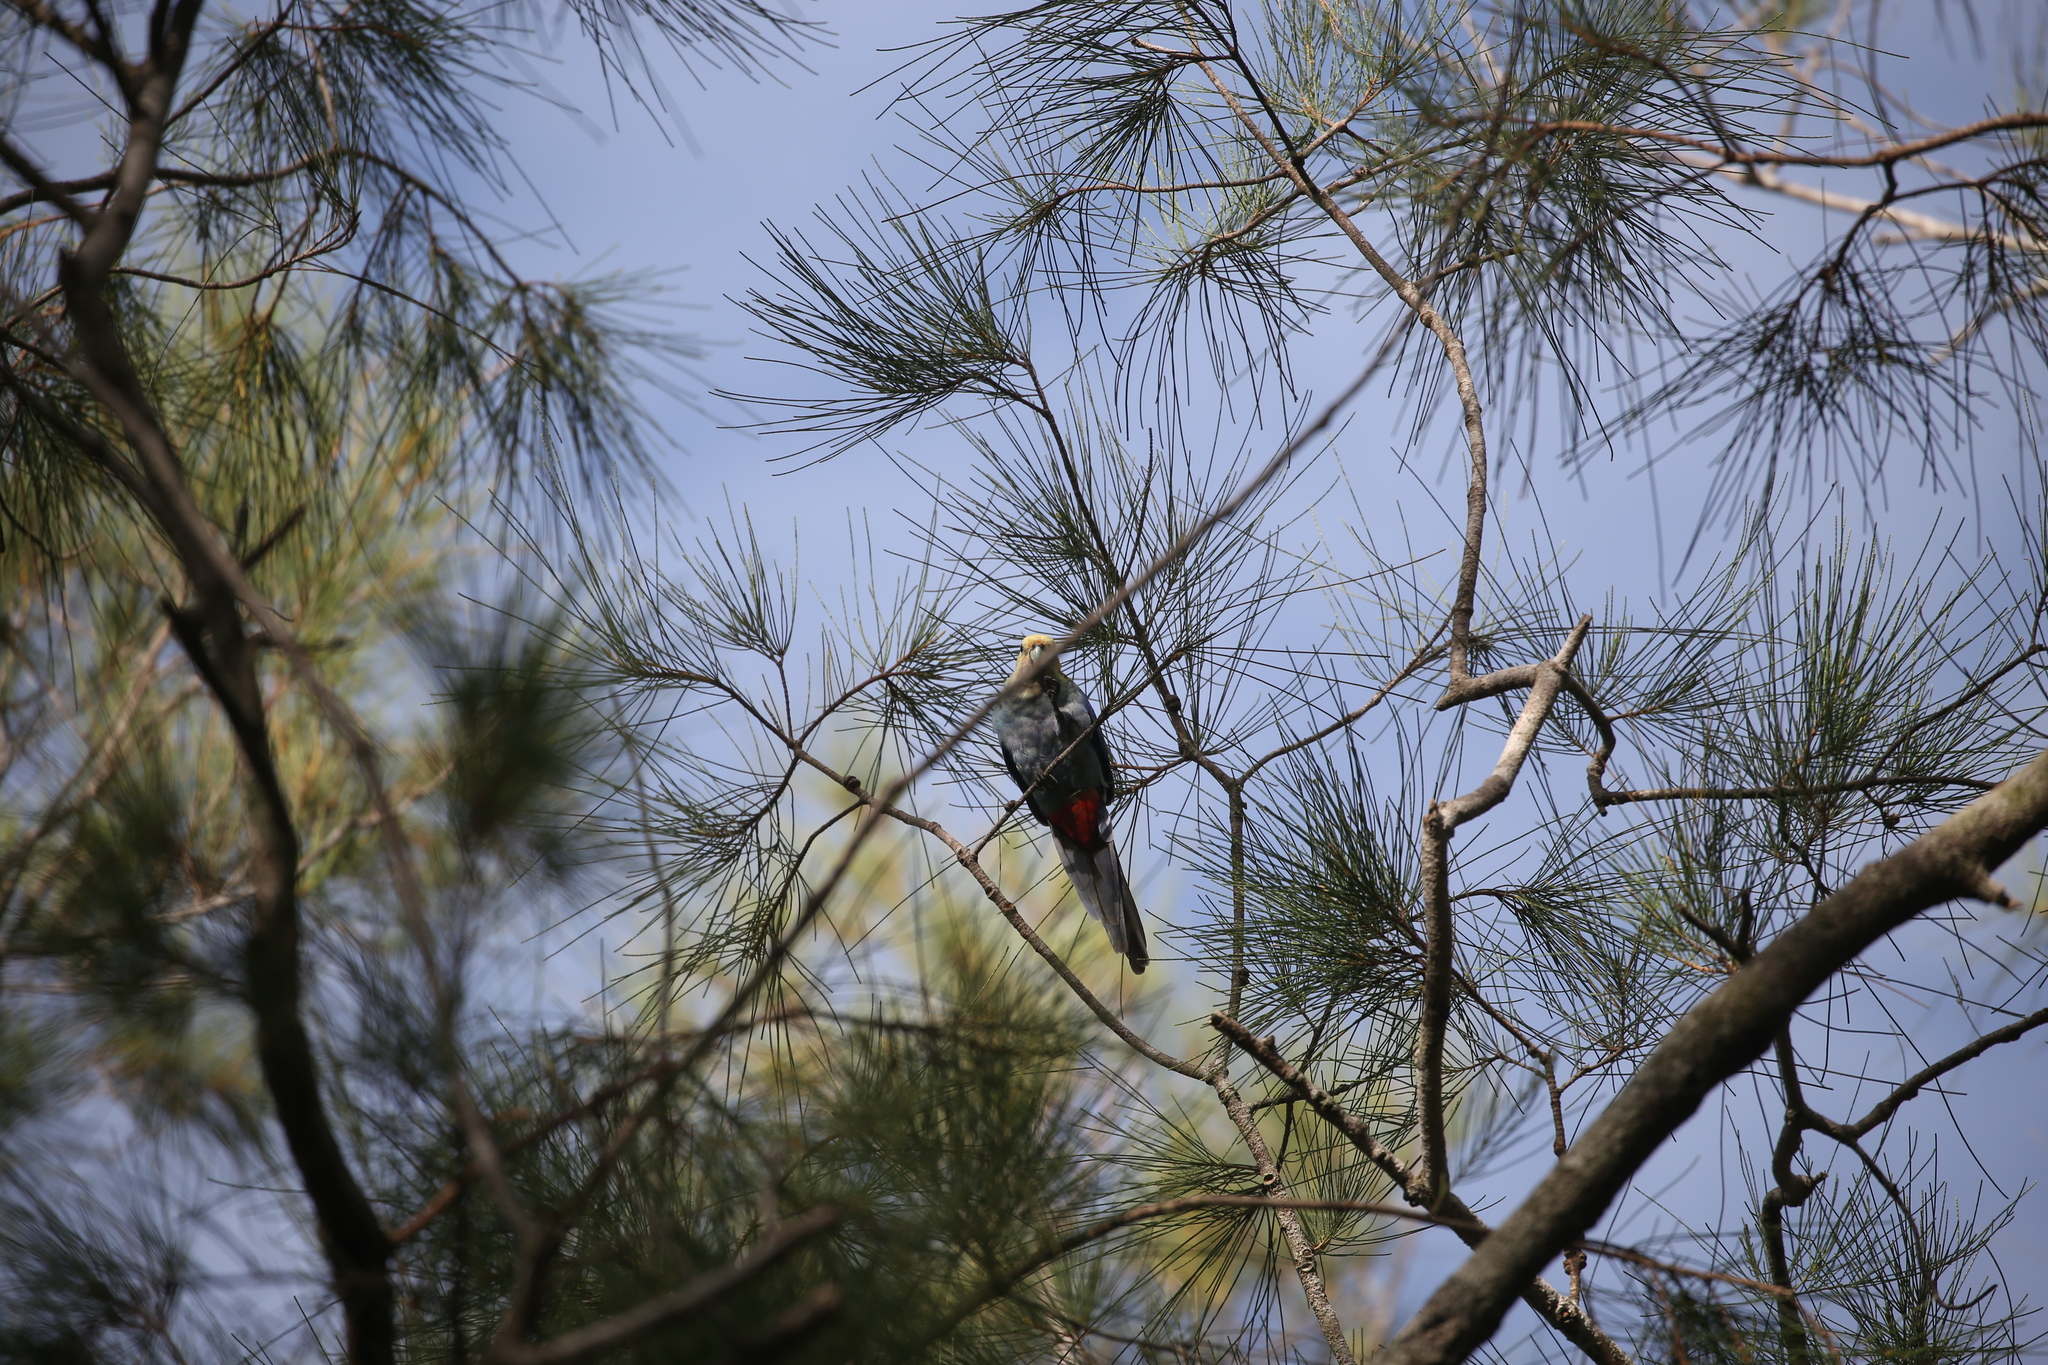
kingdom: Animalia
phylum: Chordata
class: Aves
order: Psittaciformes
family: Psittacidae
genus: Platycercus
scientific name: Platycercus adscitus
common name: Pale-headed rosella
